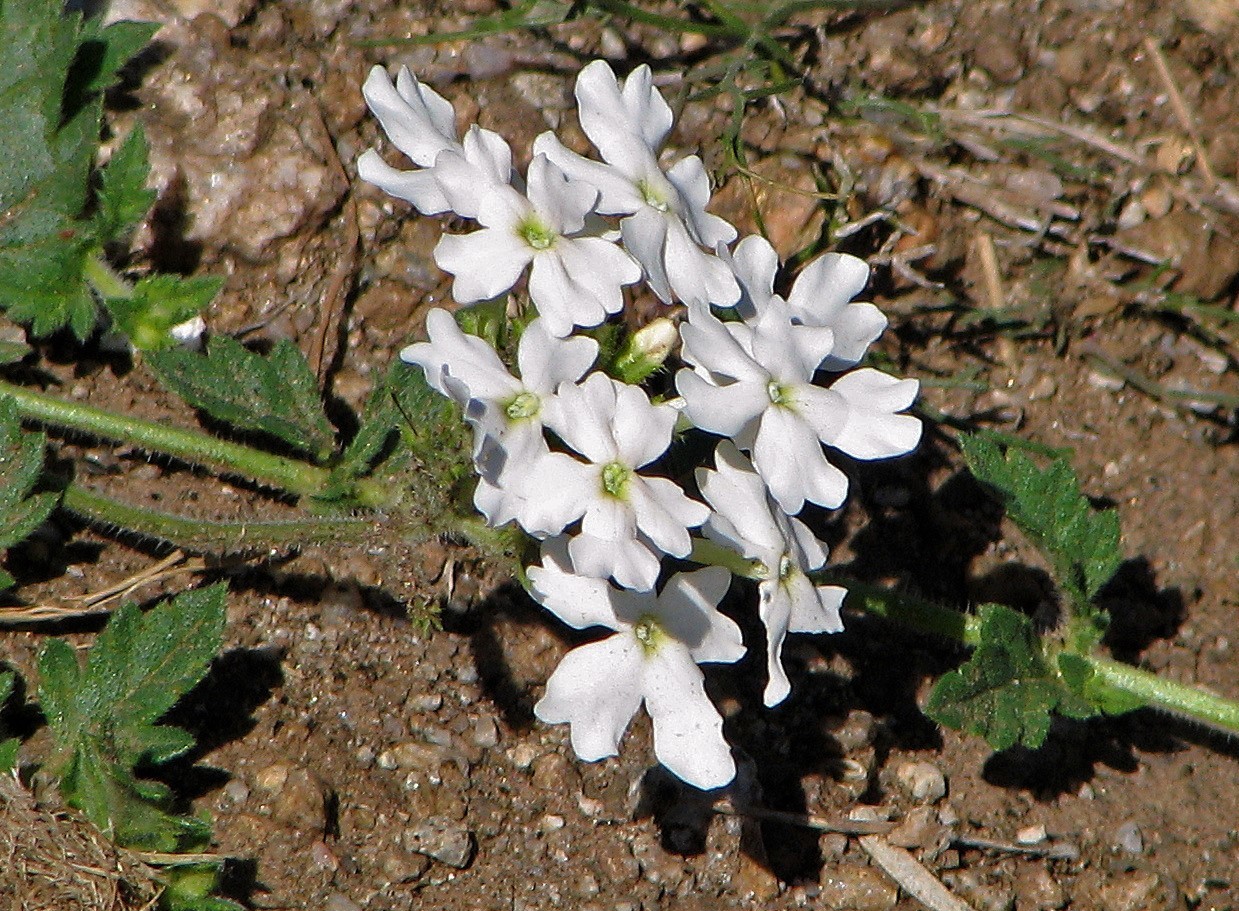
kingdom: Plantae
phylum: Tracheophyta
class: Magnoliopsida
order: Lamiales
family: Verbenaceae
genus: Verbena
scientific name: Verbena platensis
